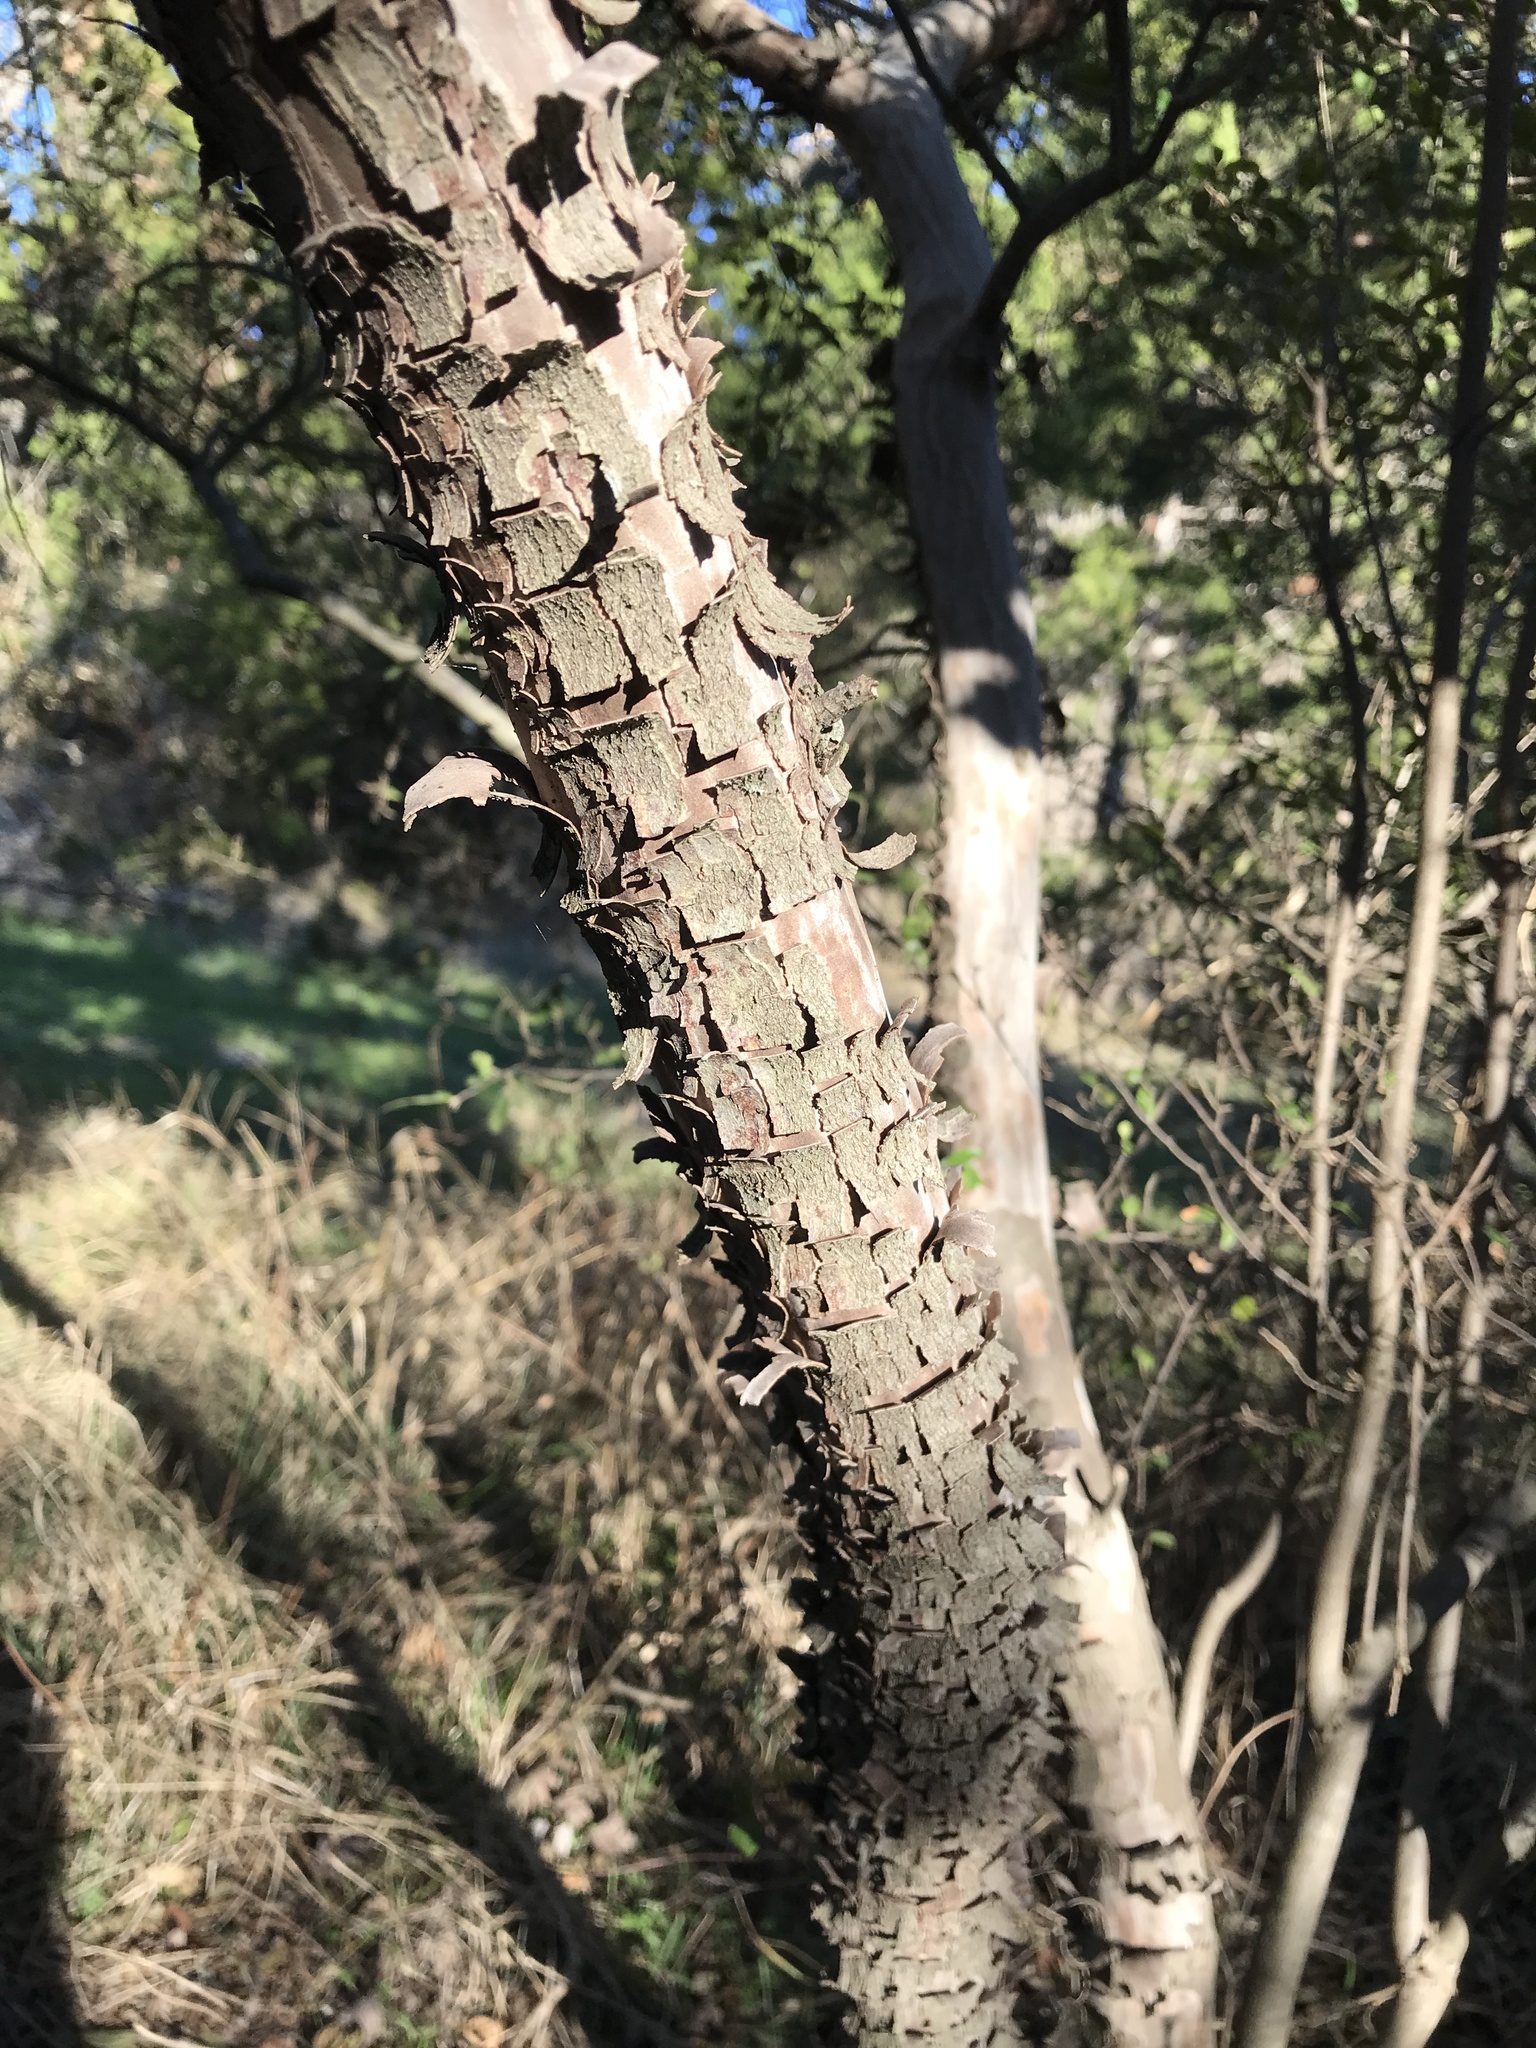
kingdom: Plantae
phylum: Tracheophyta
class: Magnoliopsida
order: Ericales
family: Ebenaceae
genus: Diospyros
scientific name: Diospyros texana
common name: Texas persimmon
